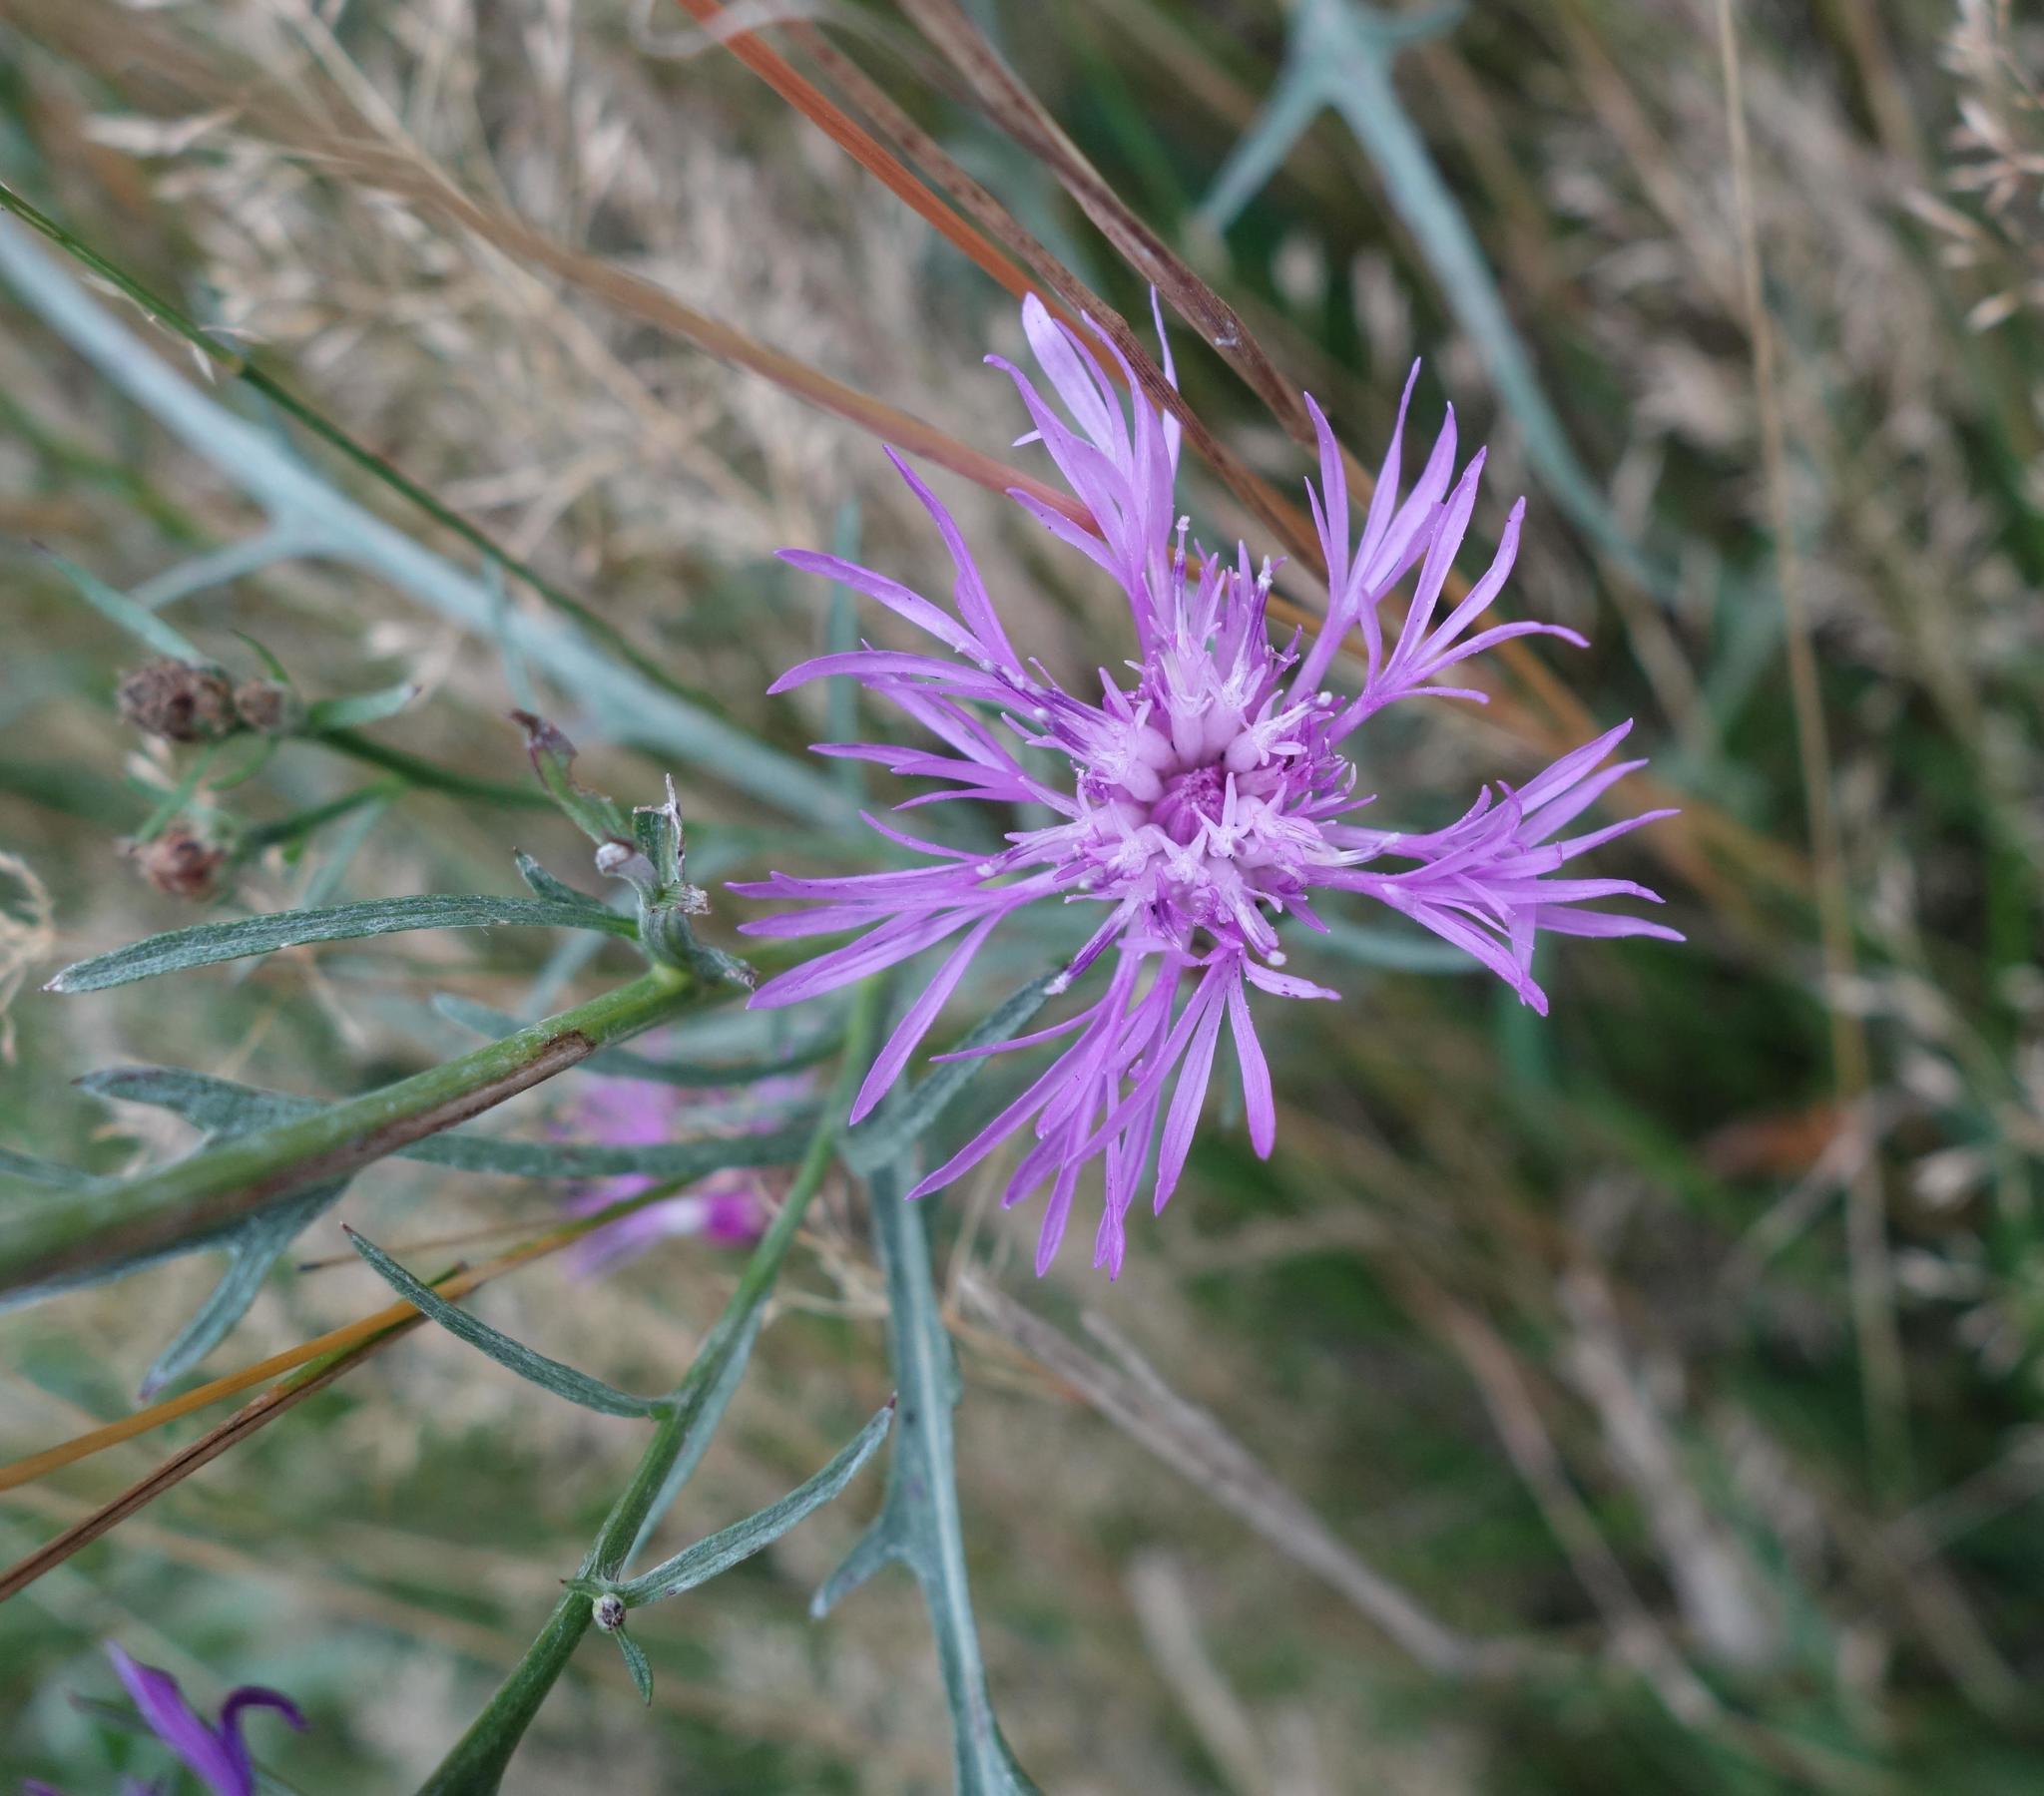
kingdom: Plantae
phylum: Tracheophyta
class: Magnoliopsida
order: Asterales
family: Asteraceae
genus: Centaurea
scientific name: Centaurea stoebe
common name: Spotted knapweed
